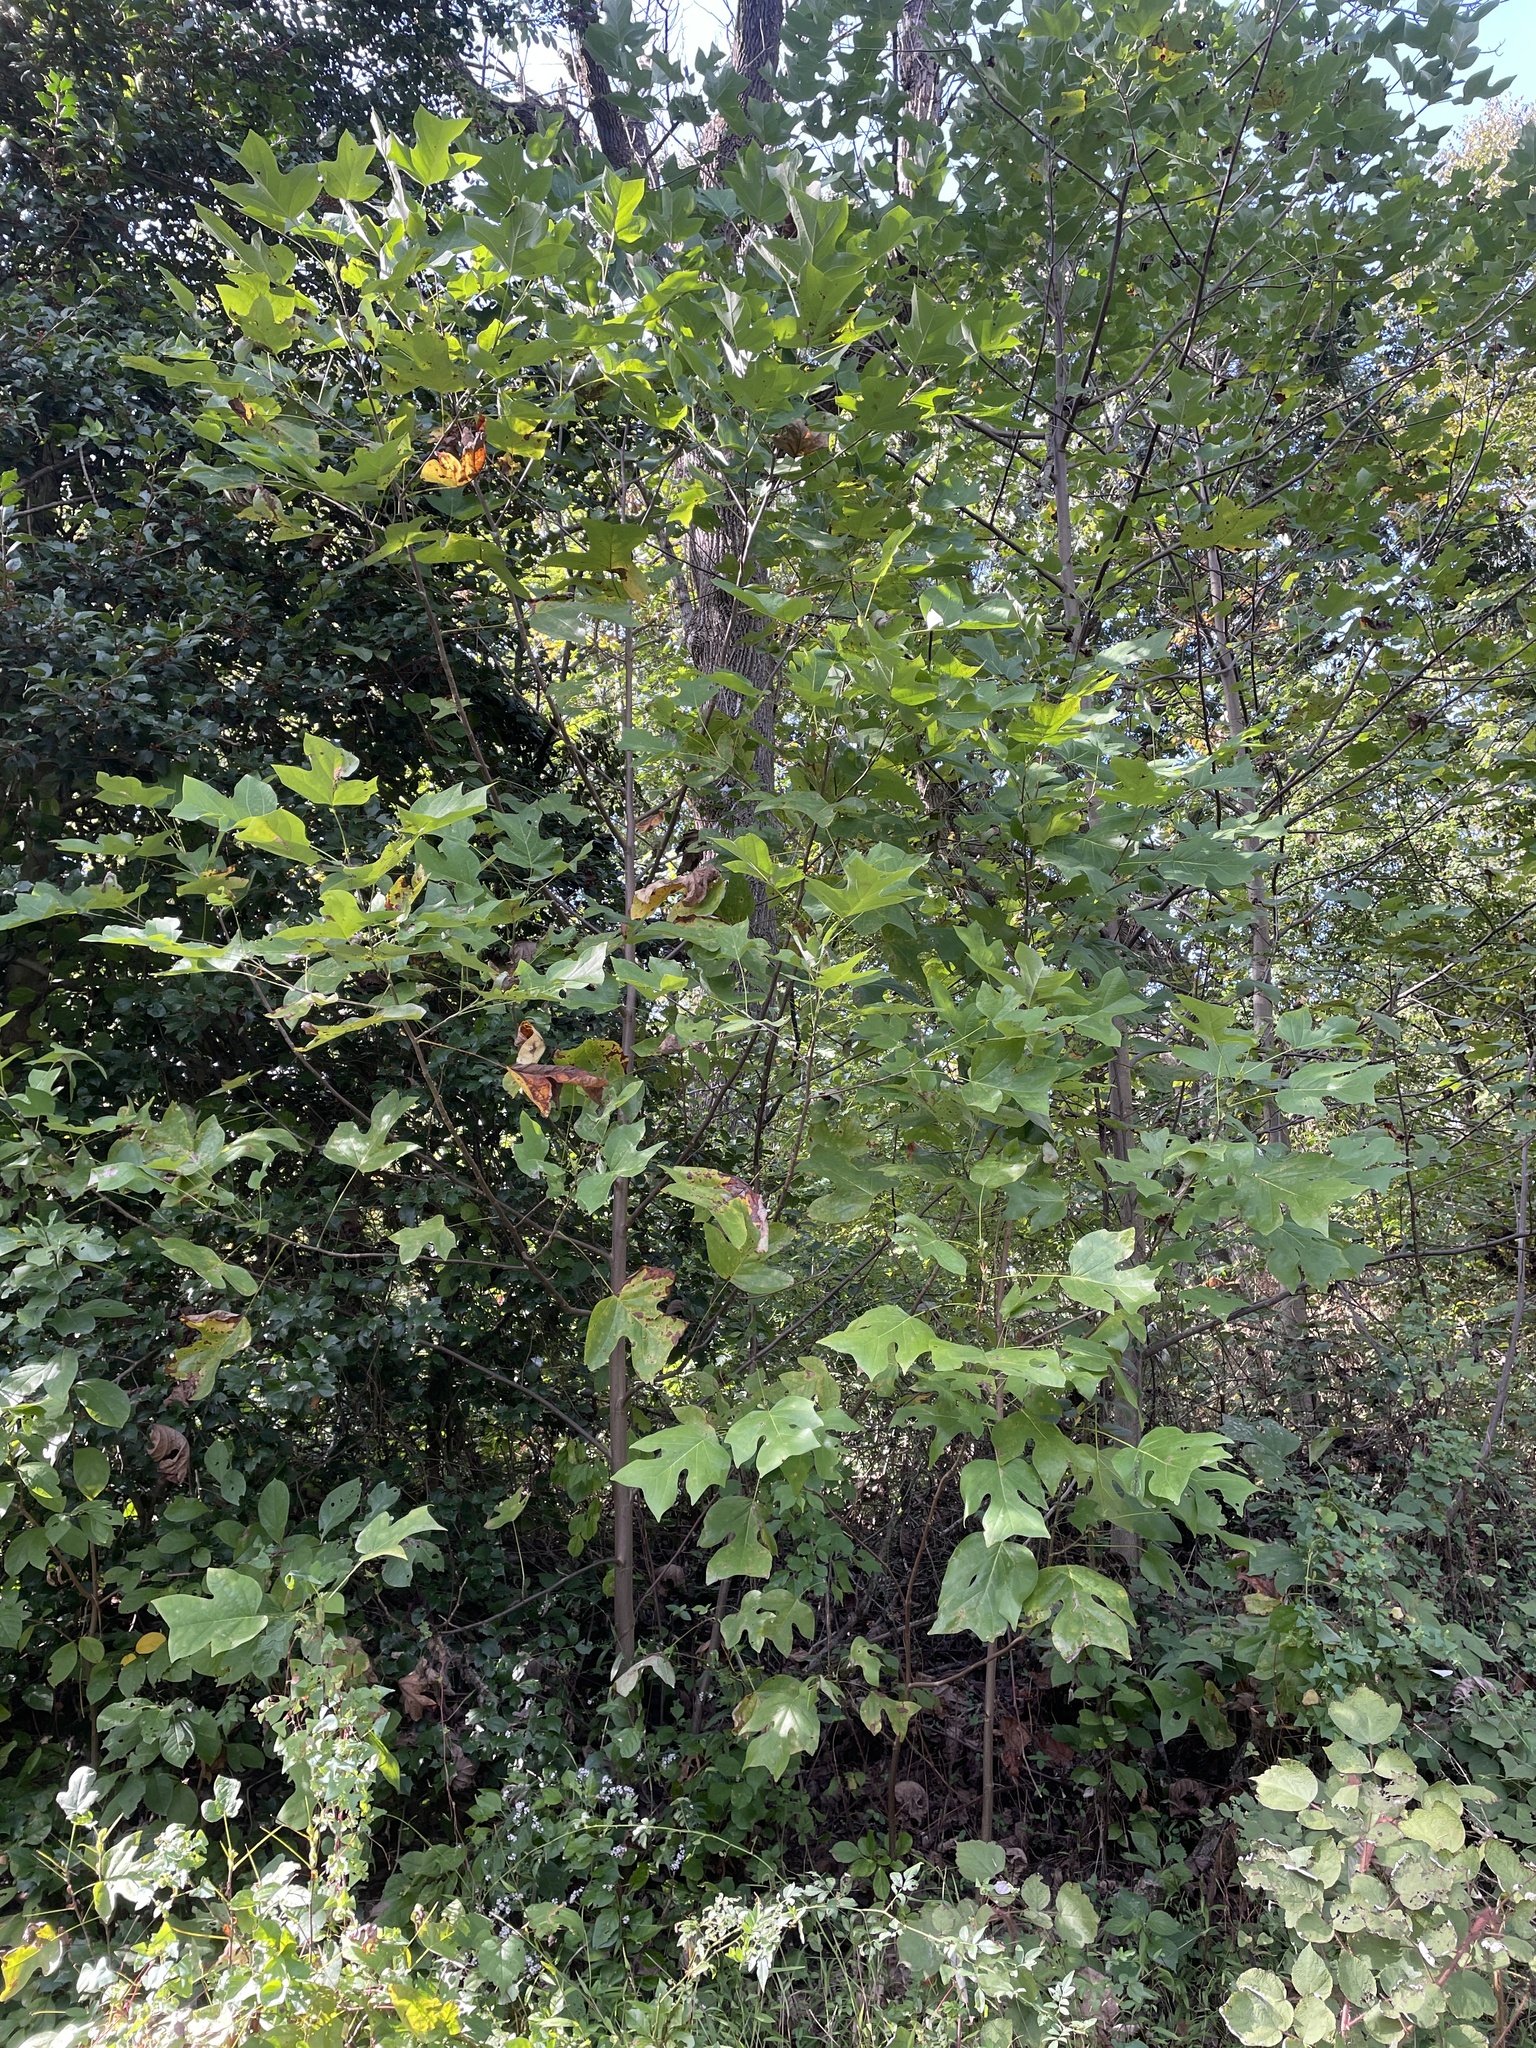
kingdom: Plantae
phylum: Tracheophyta
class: Magnoliopsida
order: Magnoliales
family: Magnoliaceae
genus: Liriodendron
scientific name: Liriodendron tulipifera
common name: Tulip tree
